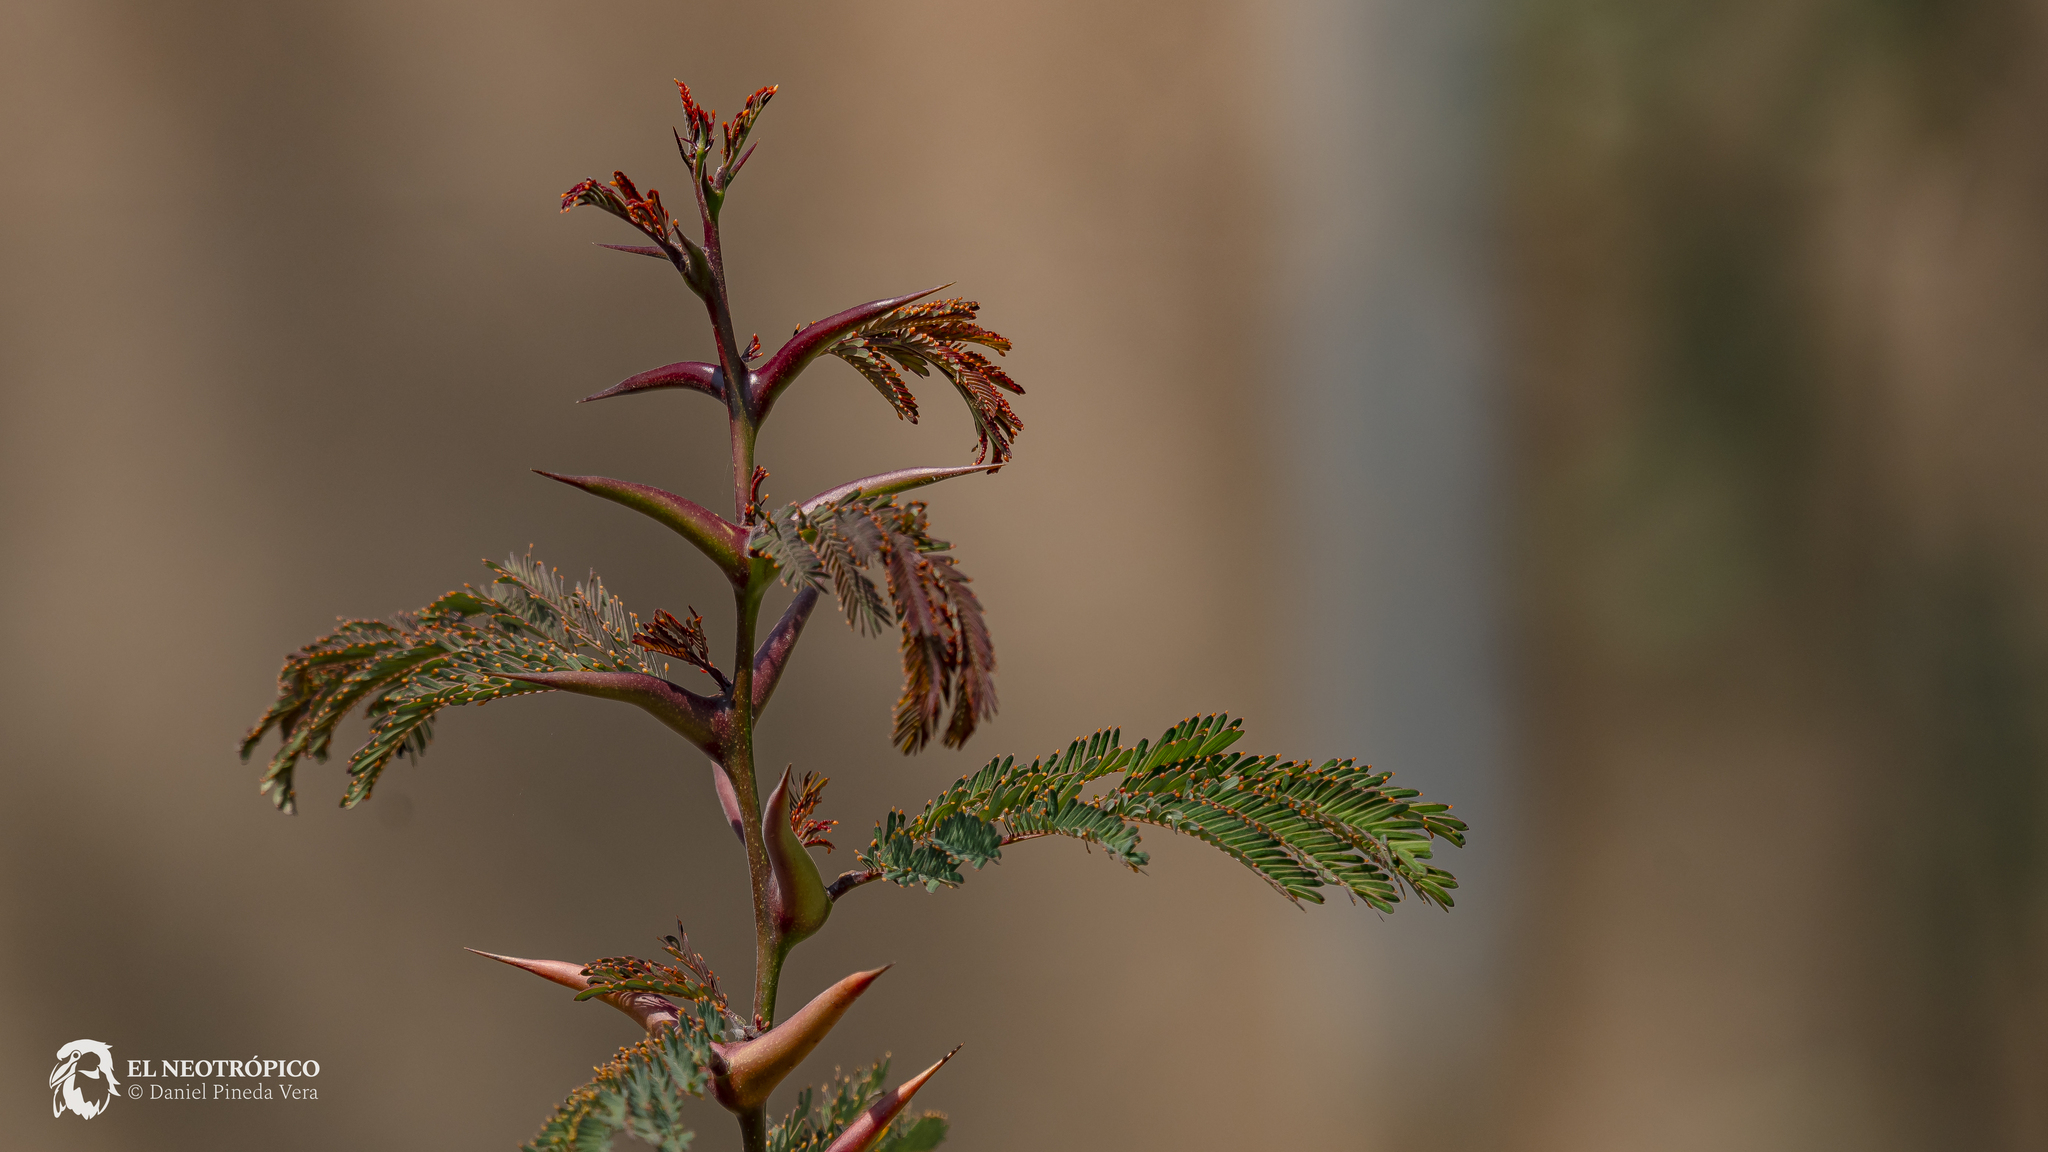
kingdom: Plantae
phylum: Tracheophyta
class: Magnoliopsida
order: Fabales
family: Fabaceae
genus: Vachellia
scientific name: Vachellia cornigera
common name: Bullhorn wattle
